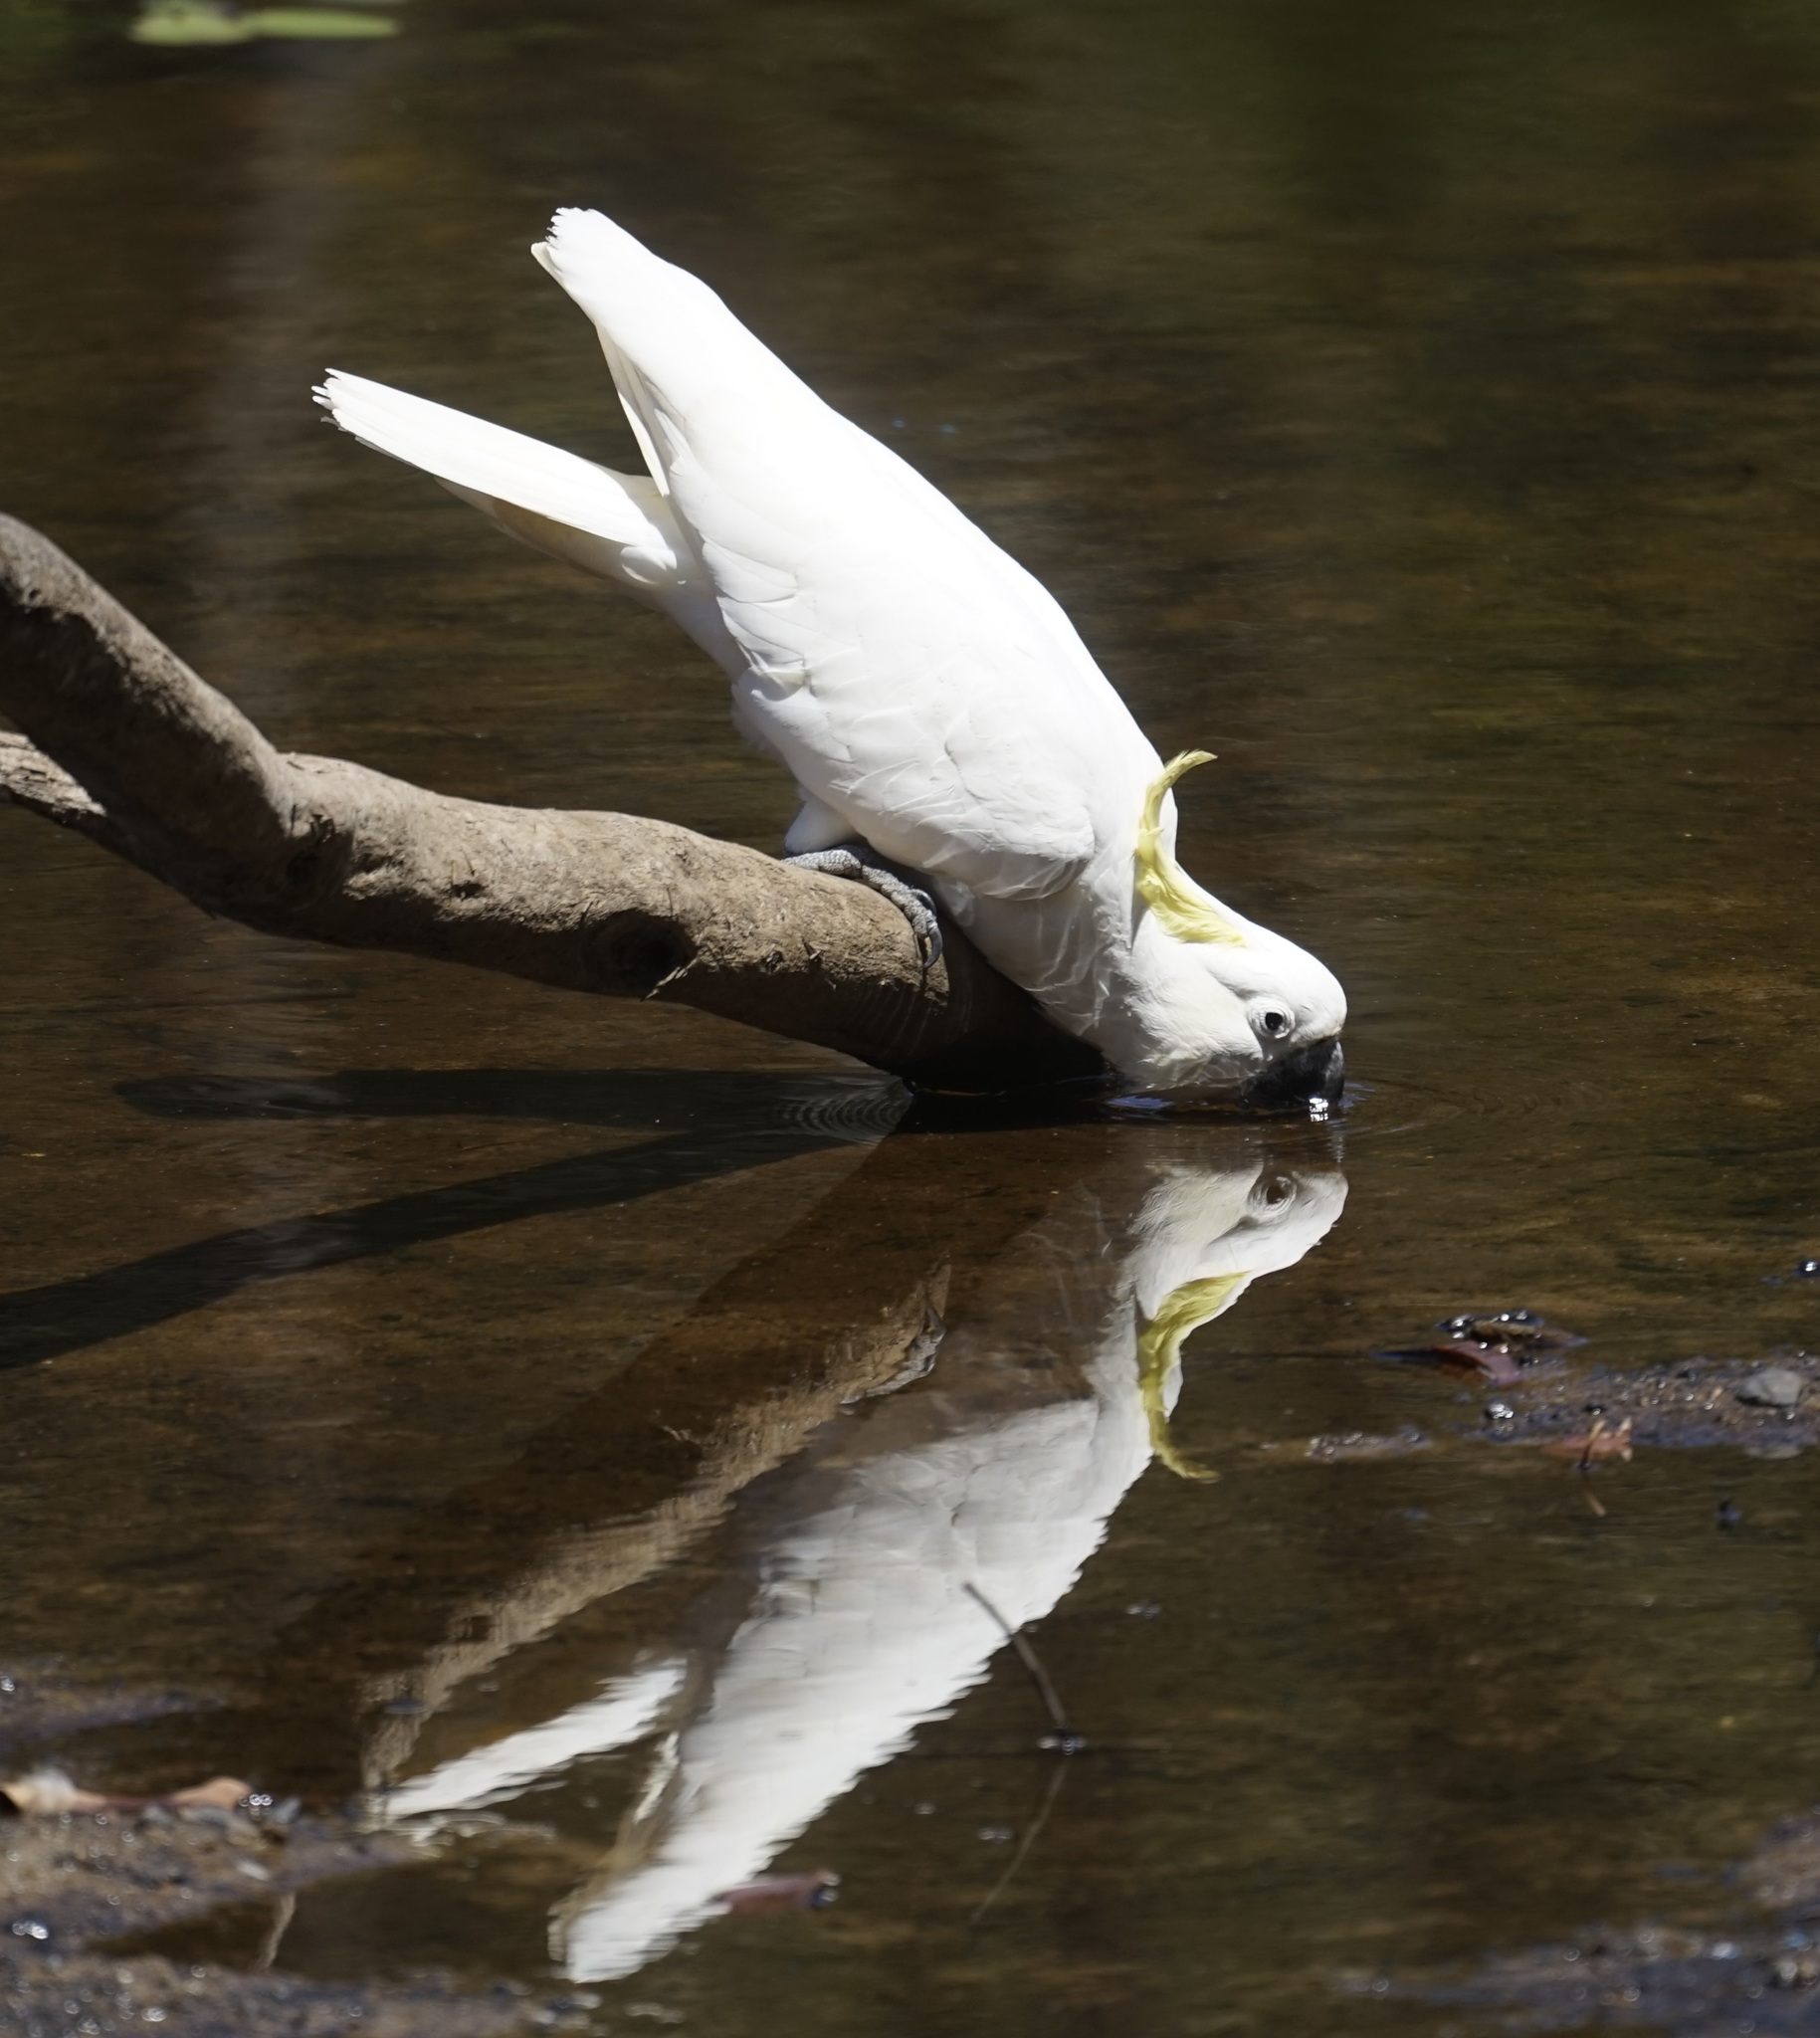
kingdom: Animalia
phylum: Chordata
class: Aves
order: Psittaciformes
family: Psittacidae
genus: Cacatua
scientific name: Cacatua galerita
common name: Sulphur-crested cockatoo
